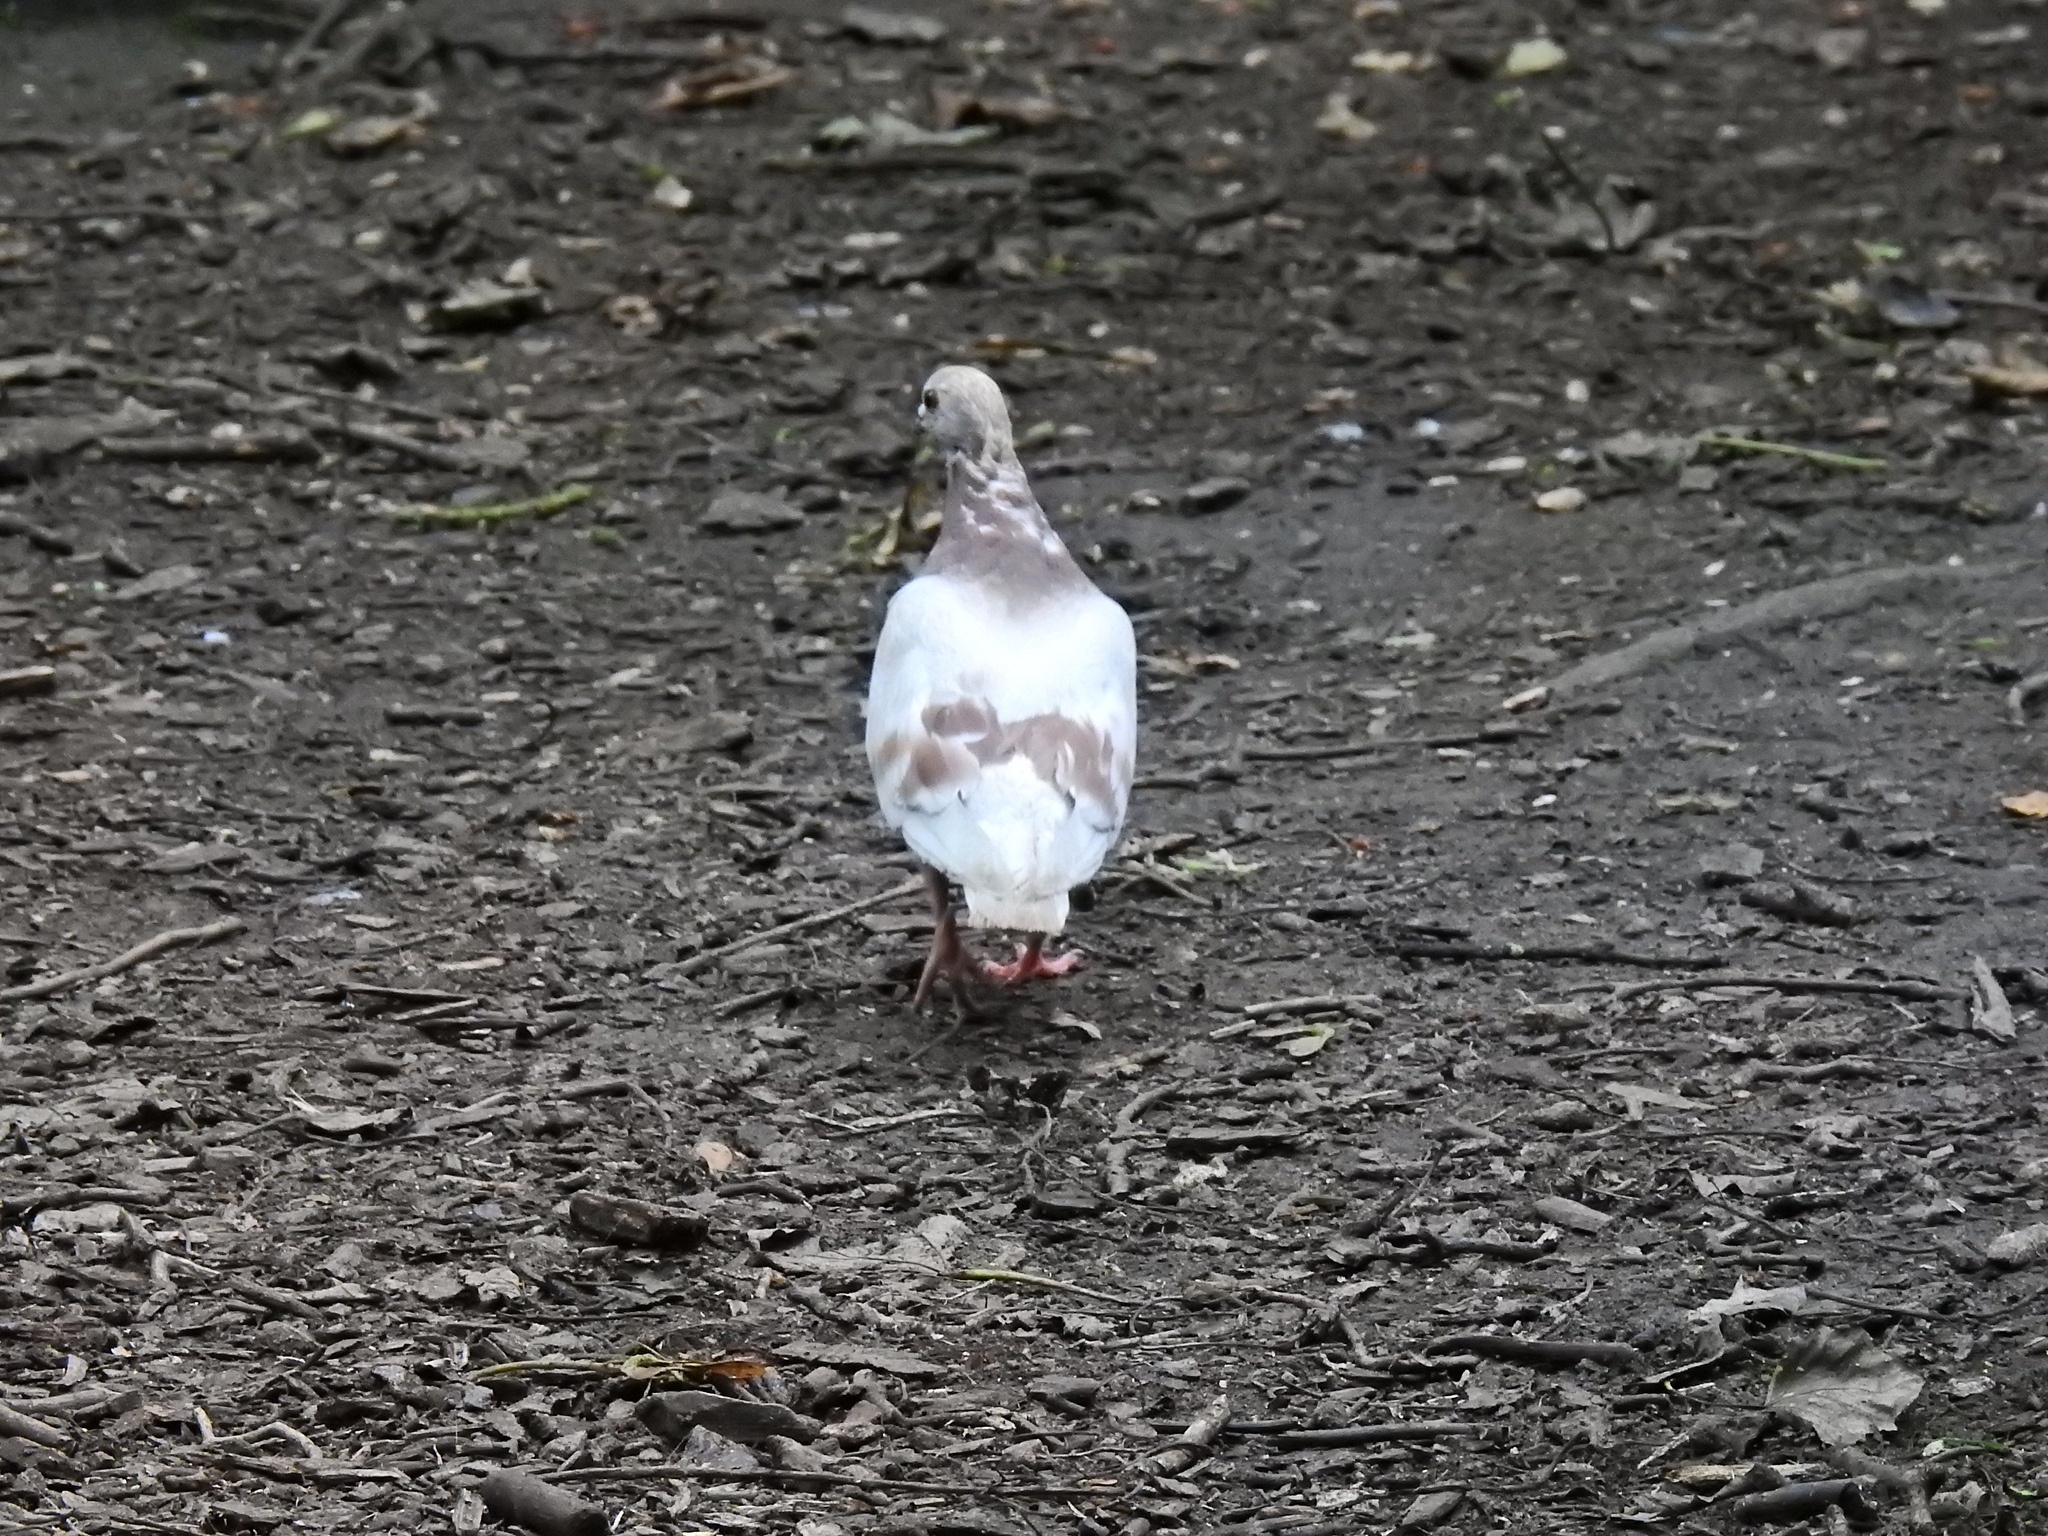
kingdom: Animalia
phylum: Chordata
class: Aves
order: Columbiformes
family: Columbidae
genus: Columba
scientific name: Columba livia
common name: Rock pigeon
